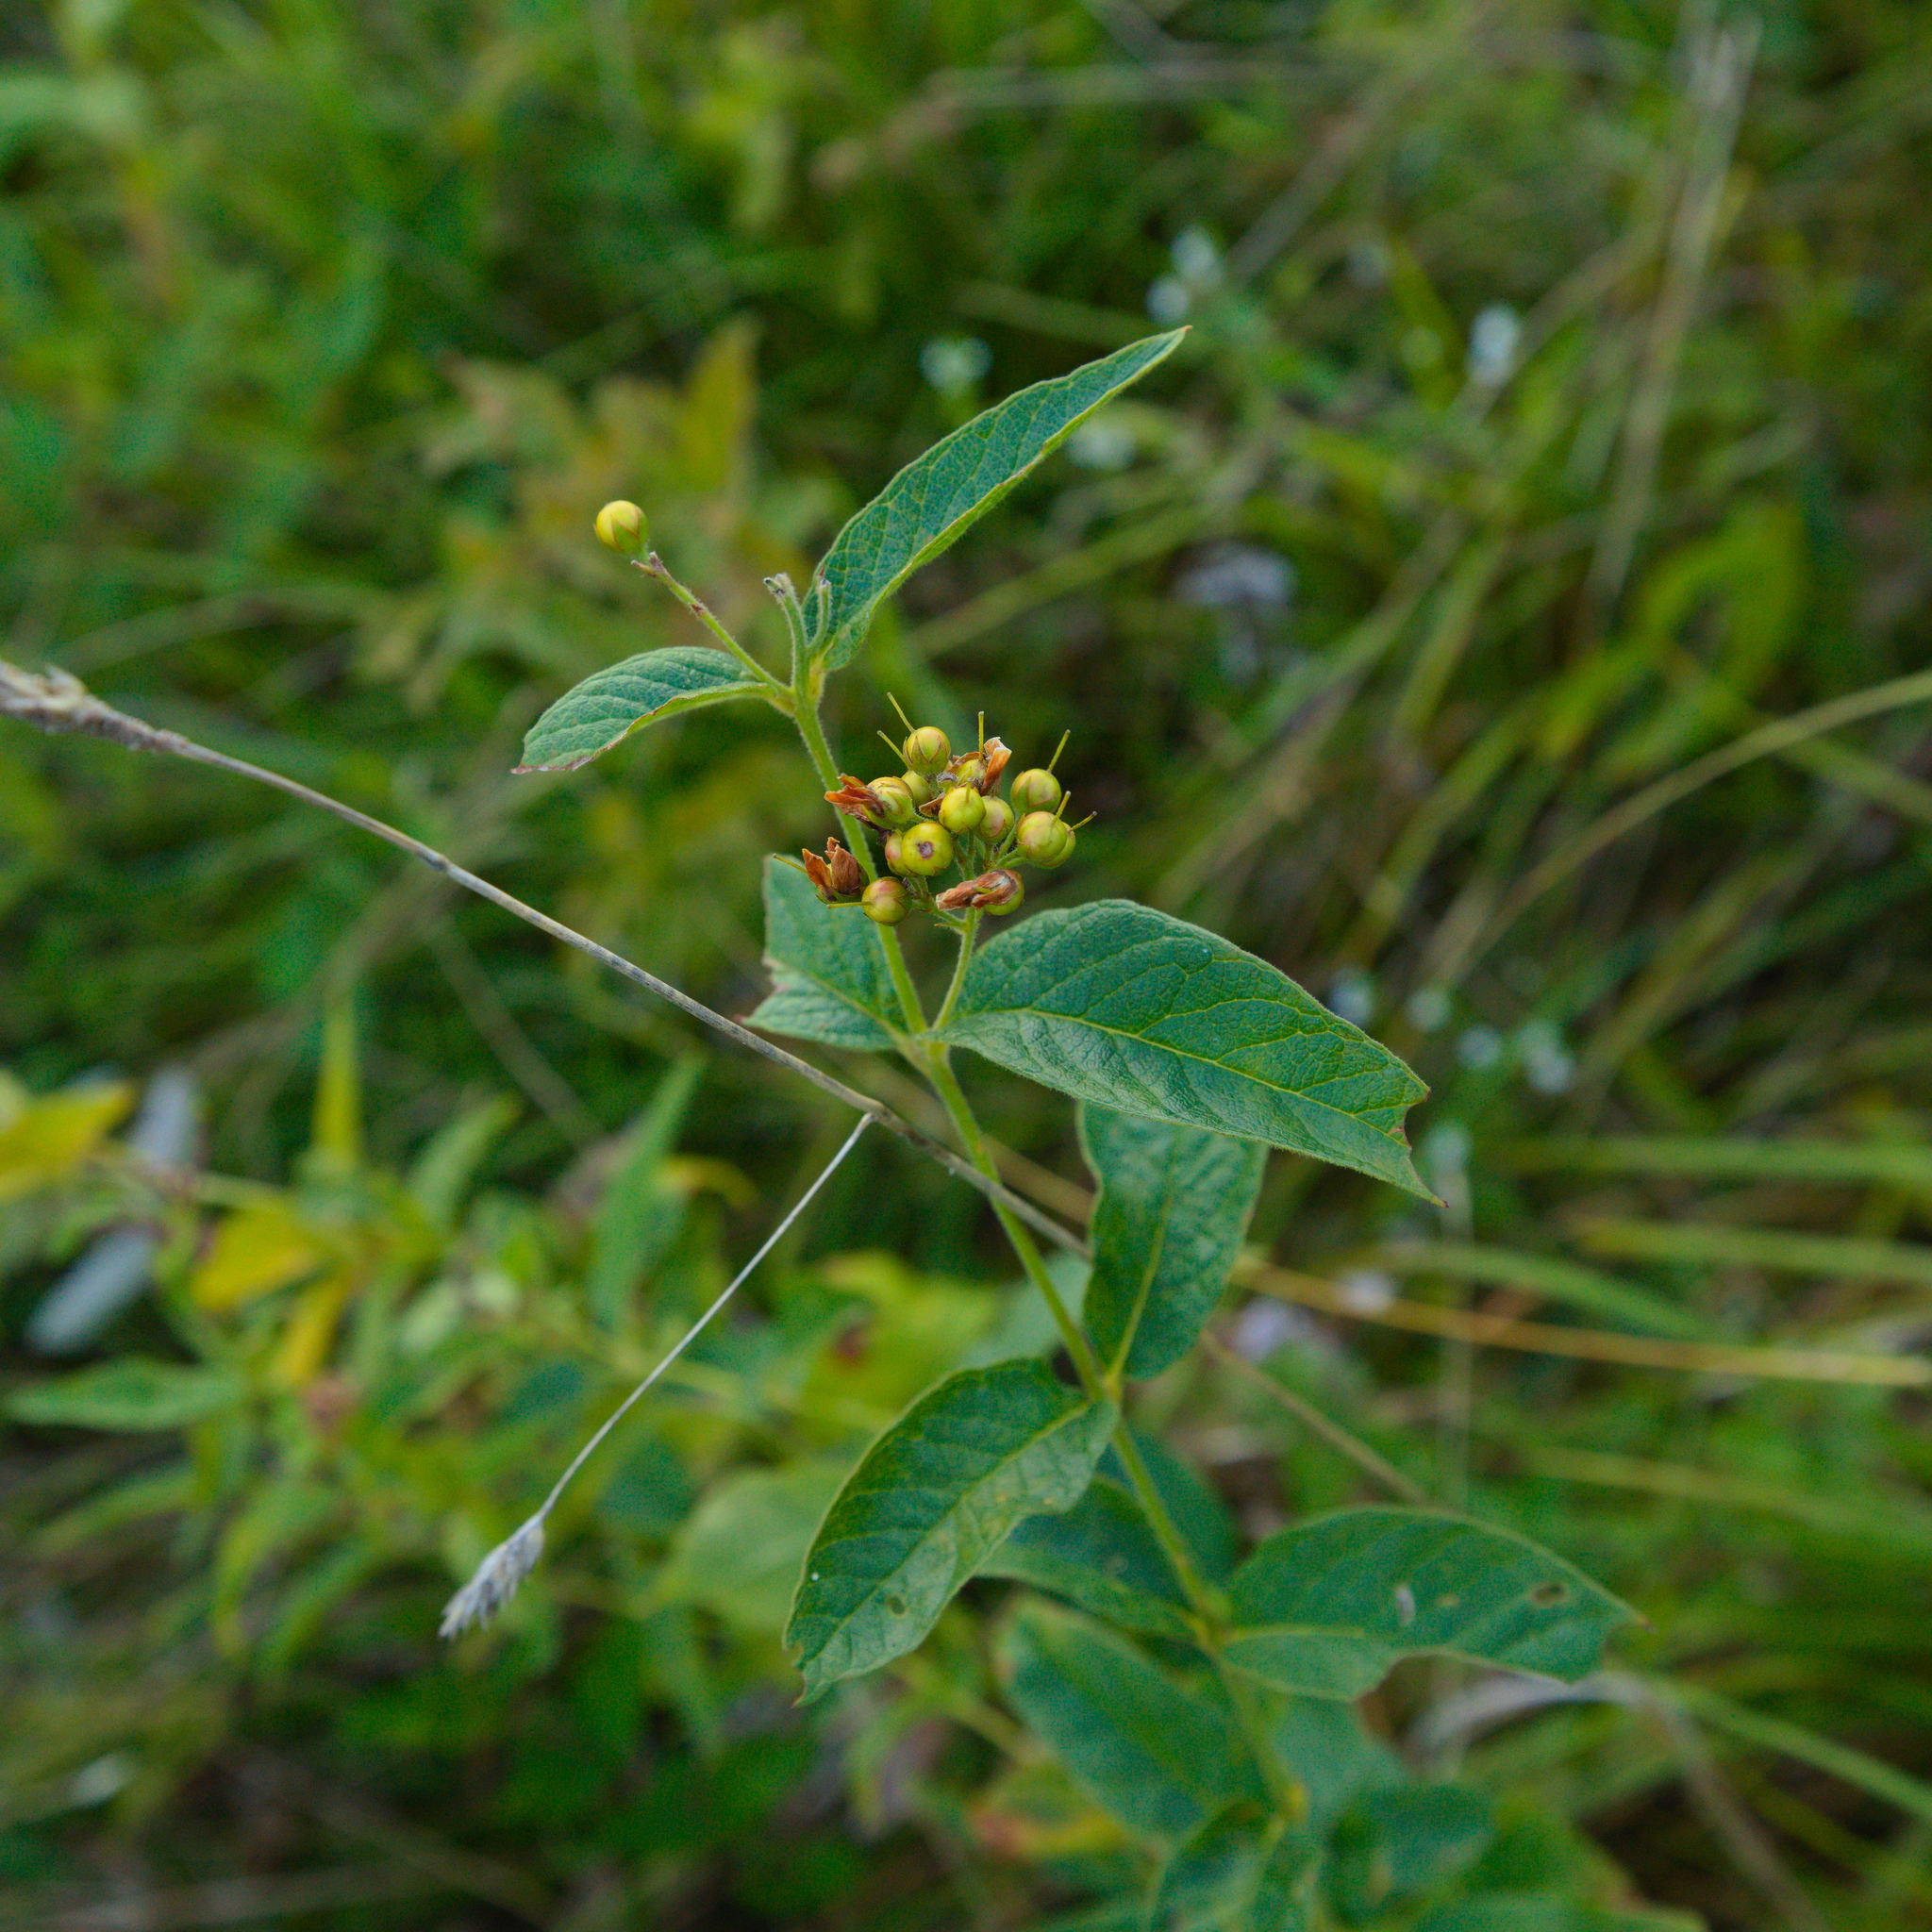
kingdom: Plantae
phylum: Tracheophyta
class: Magnoliopsida
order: Ericales
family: Primulaceae
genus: Lysimachia
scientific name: Lysimachia vulgaris
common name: Yellow loosestrife
